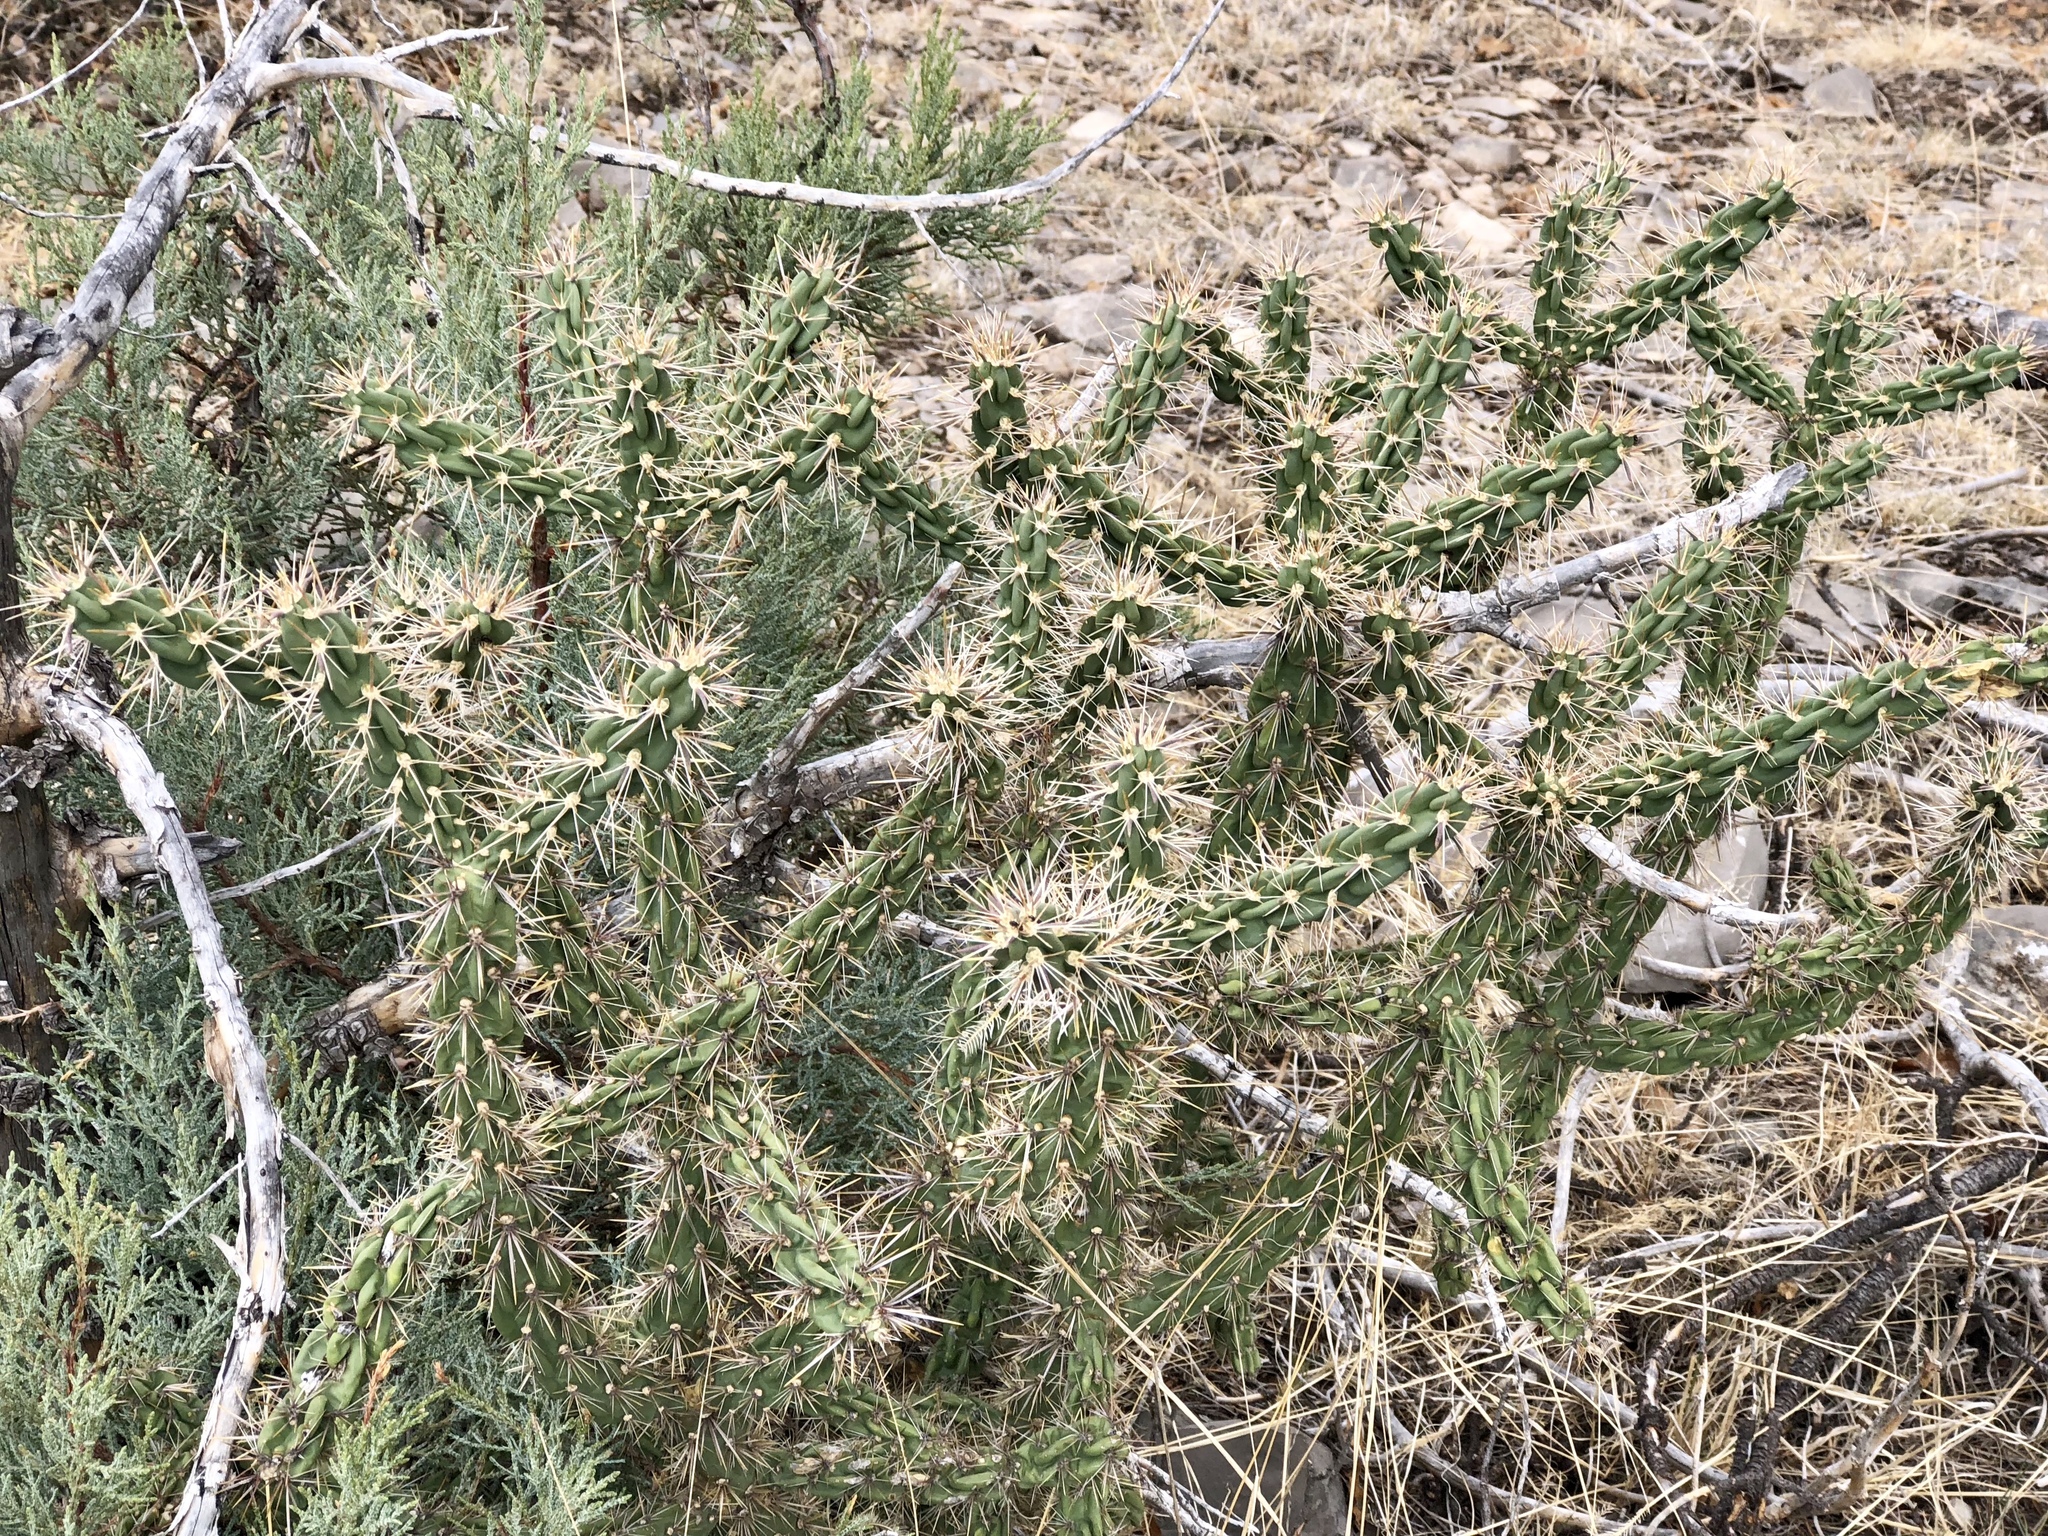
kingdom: Plantae
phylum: Tracheophyta
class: Magnoliopsida
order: Caryophyllales
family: Cactaceae
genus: Cylindropuntia
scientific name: Cylindropuntia imbricata
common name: Candelabrum cactus
